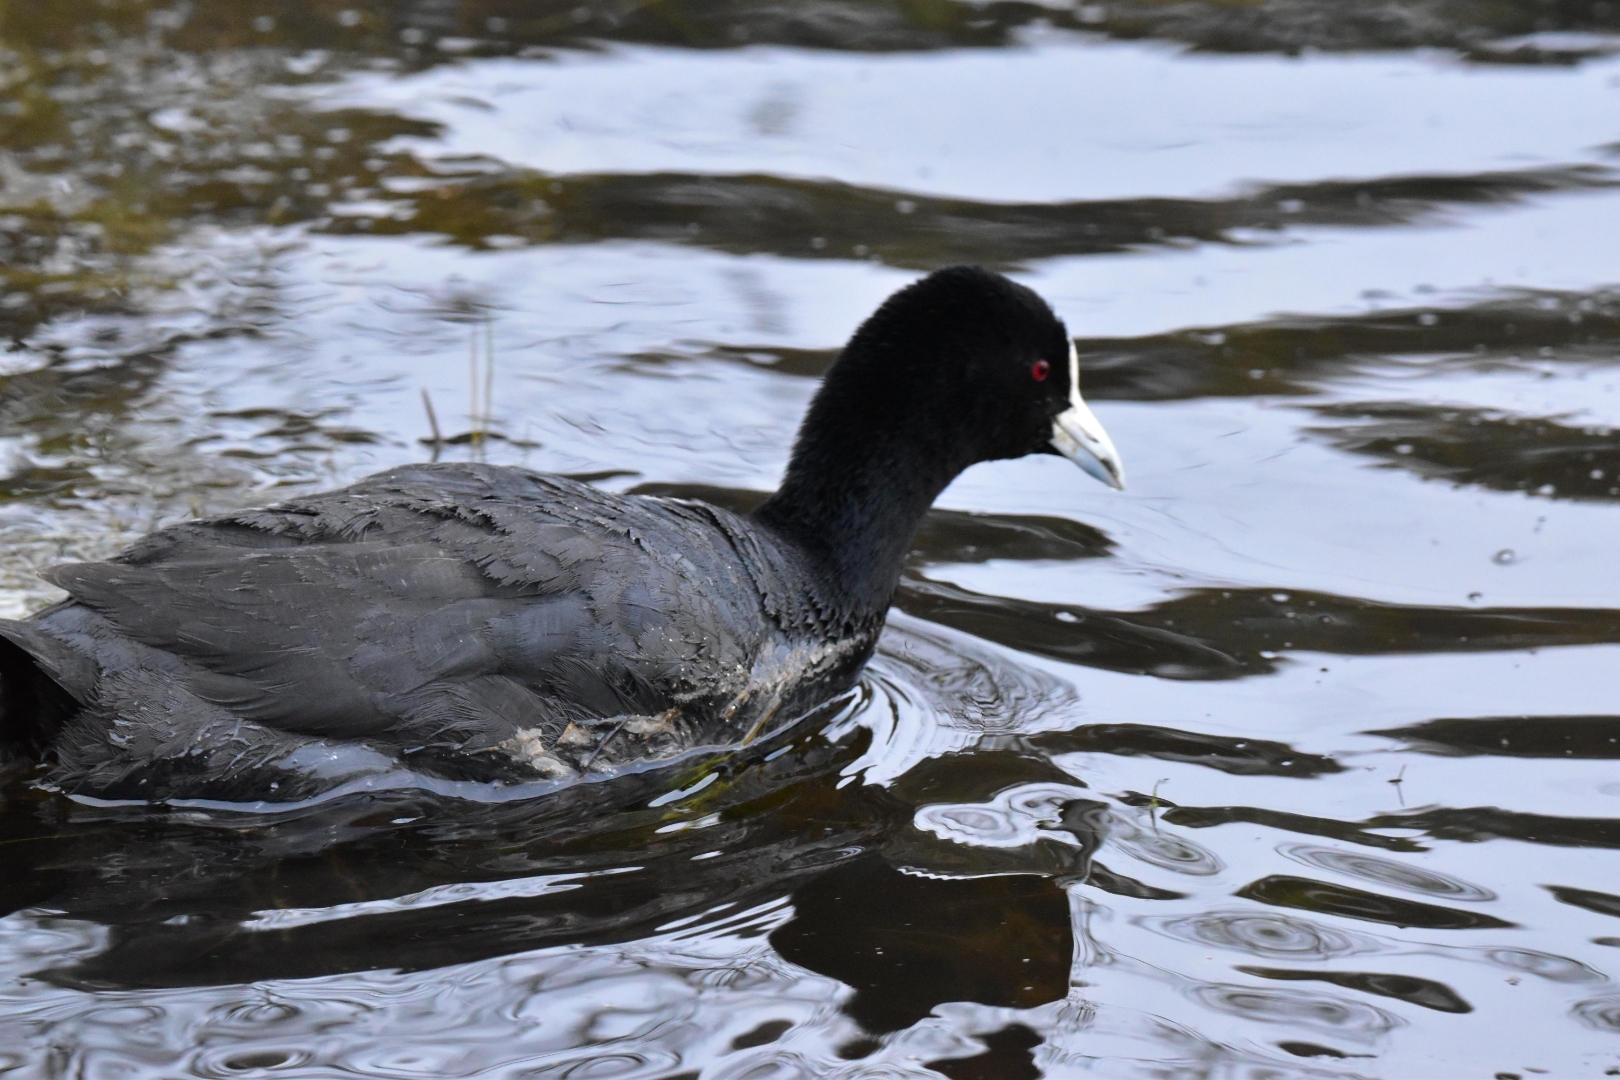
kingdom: Animalia
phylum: Chordata
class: Aves
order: Gruiformes
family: Rallidae
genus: Fulica
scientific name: Fulica atra
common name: Eurasian coot
